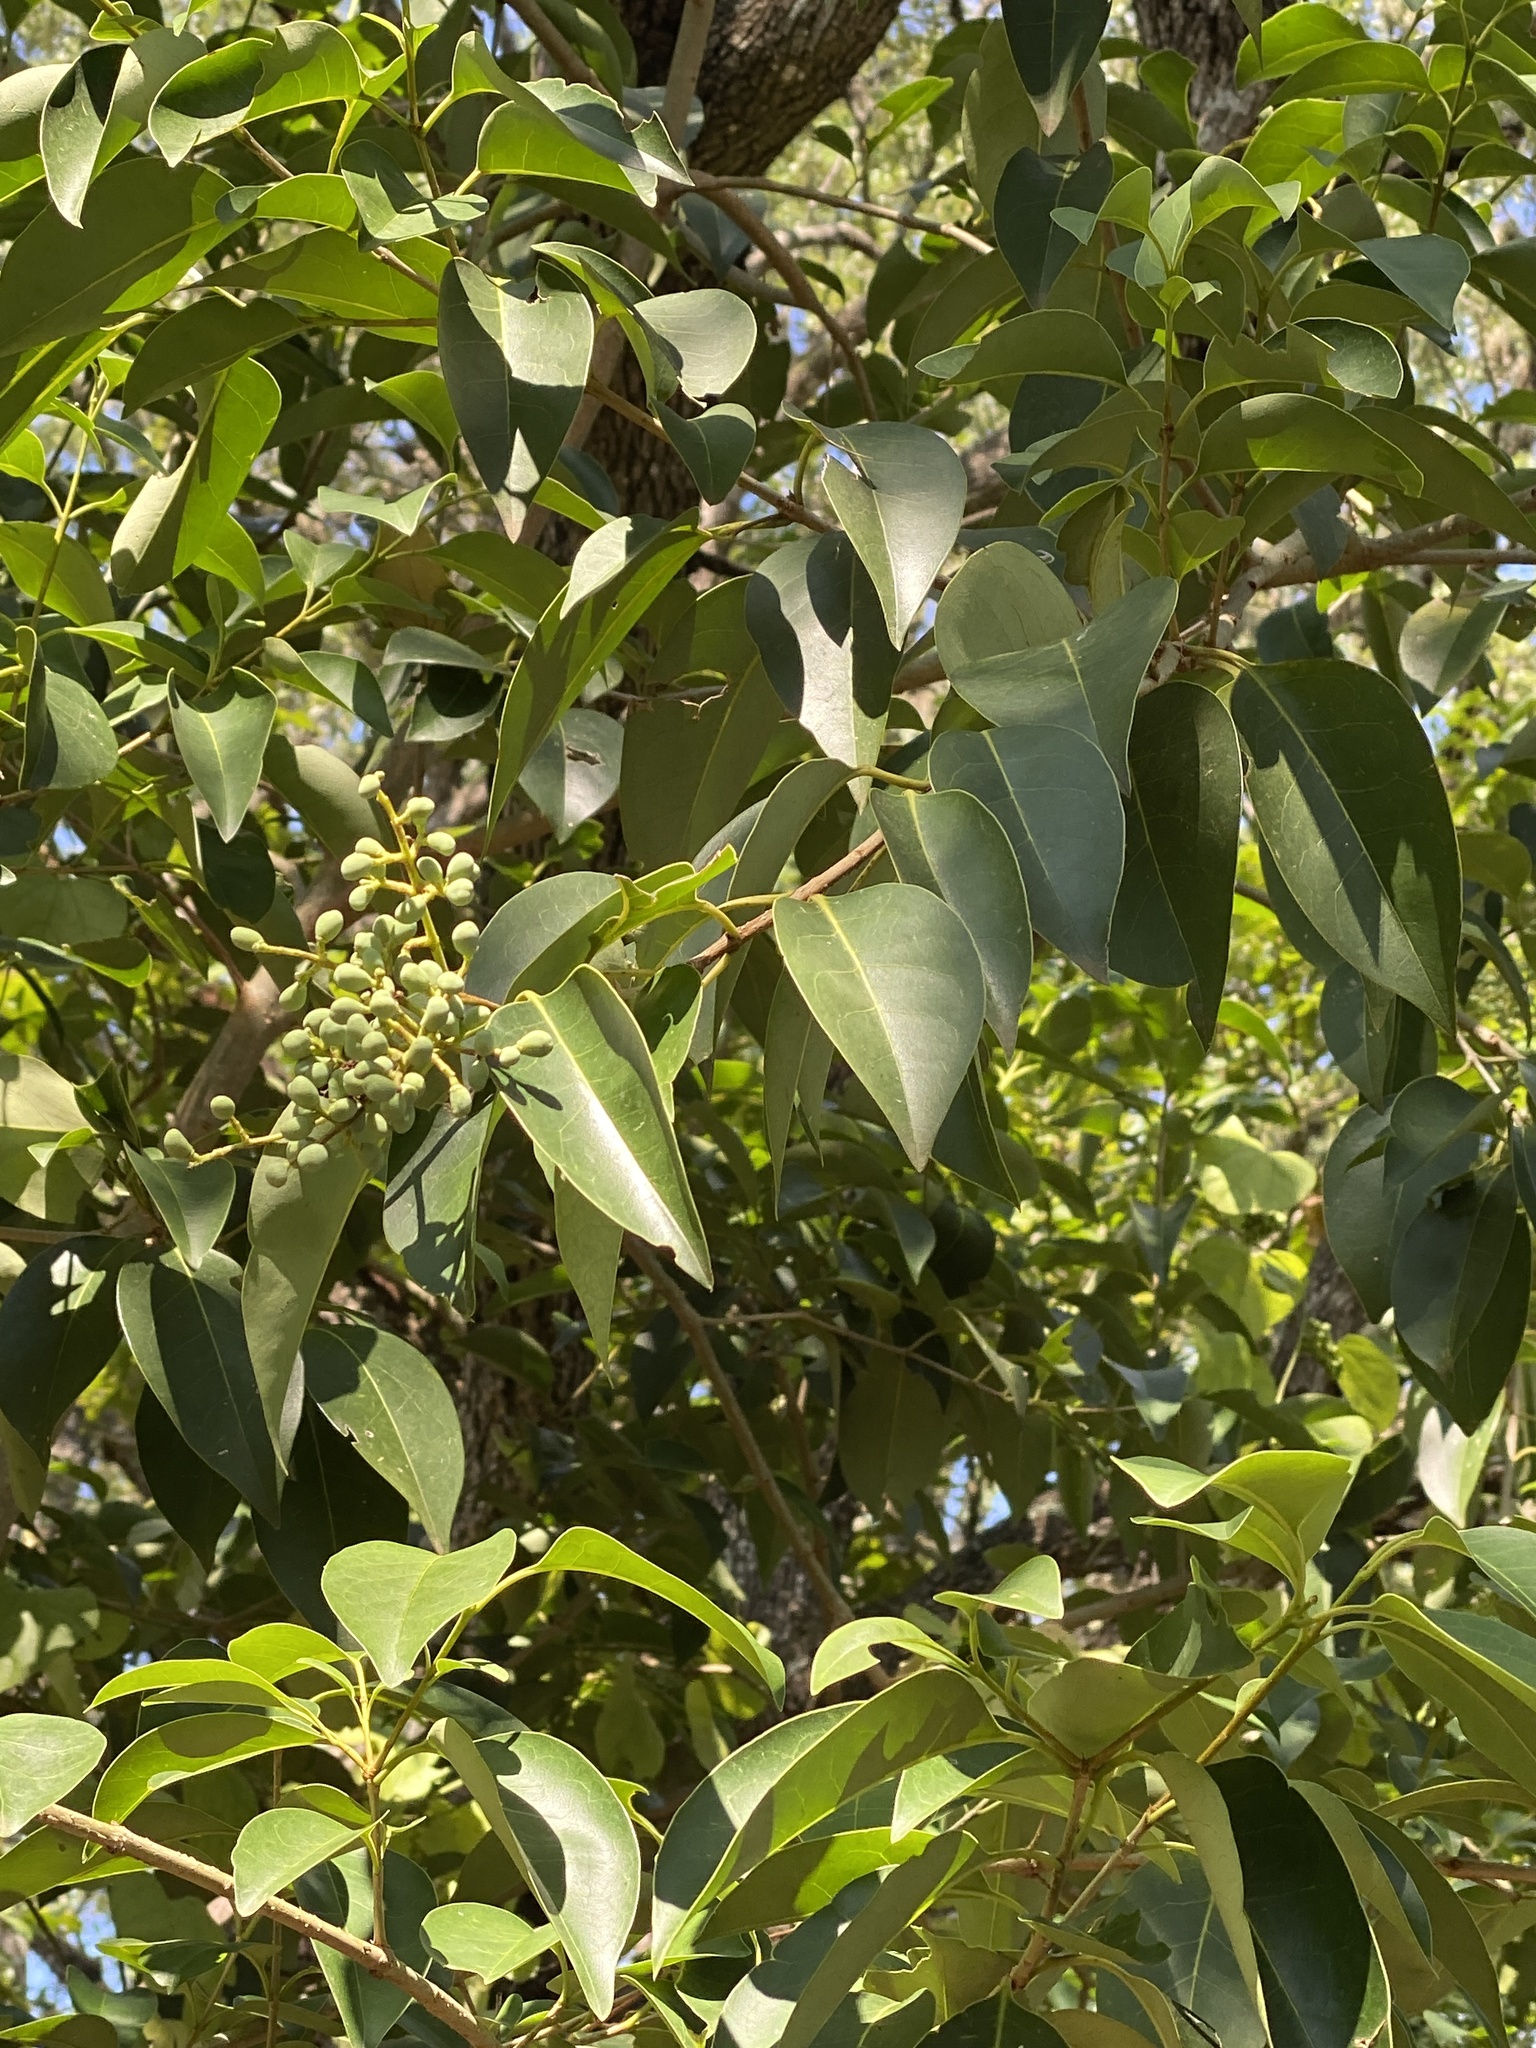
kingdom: Plantae
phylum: Tracheophyta
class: Magnoliopsida
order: Lamiales
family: Oleaceae
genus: Ligustrum
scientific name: Ligustrum lucidum
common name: Glossy privet
